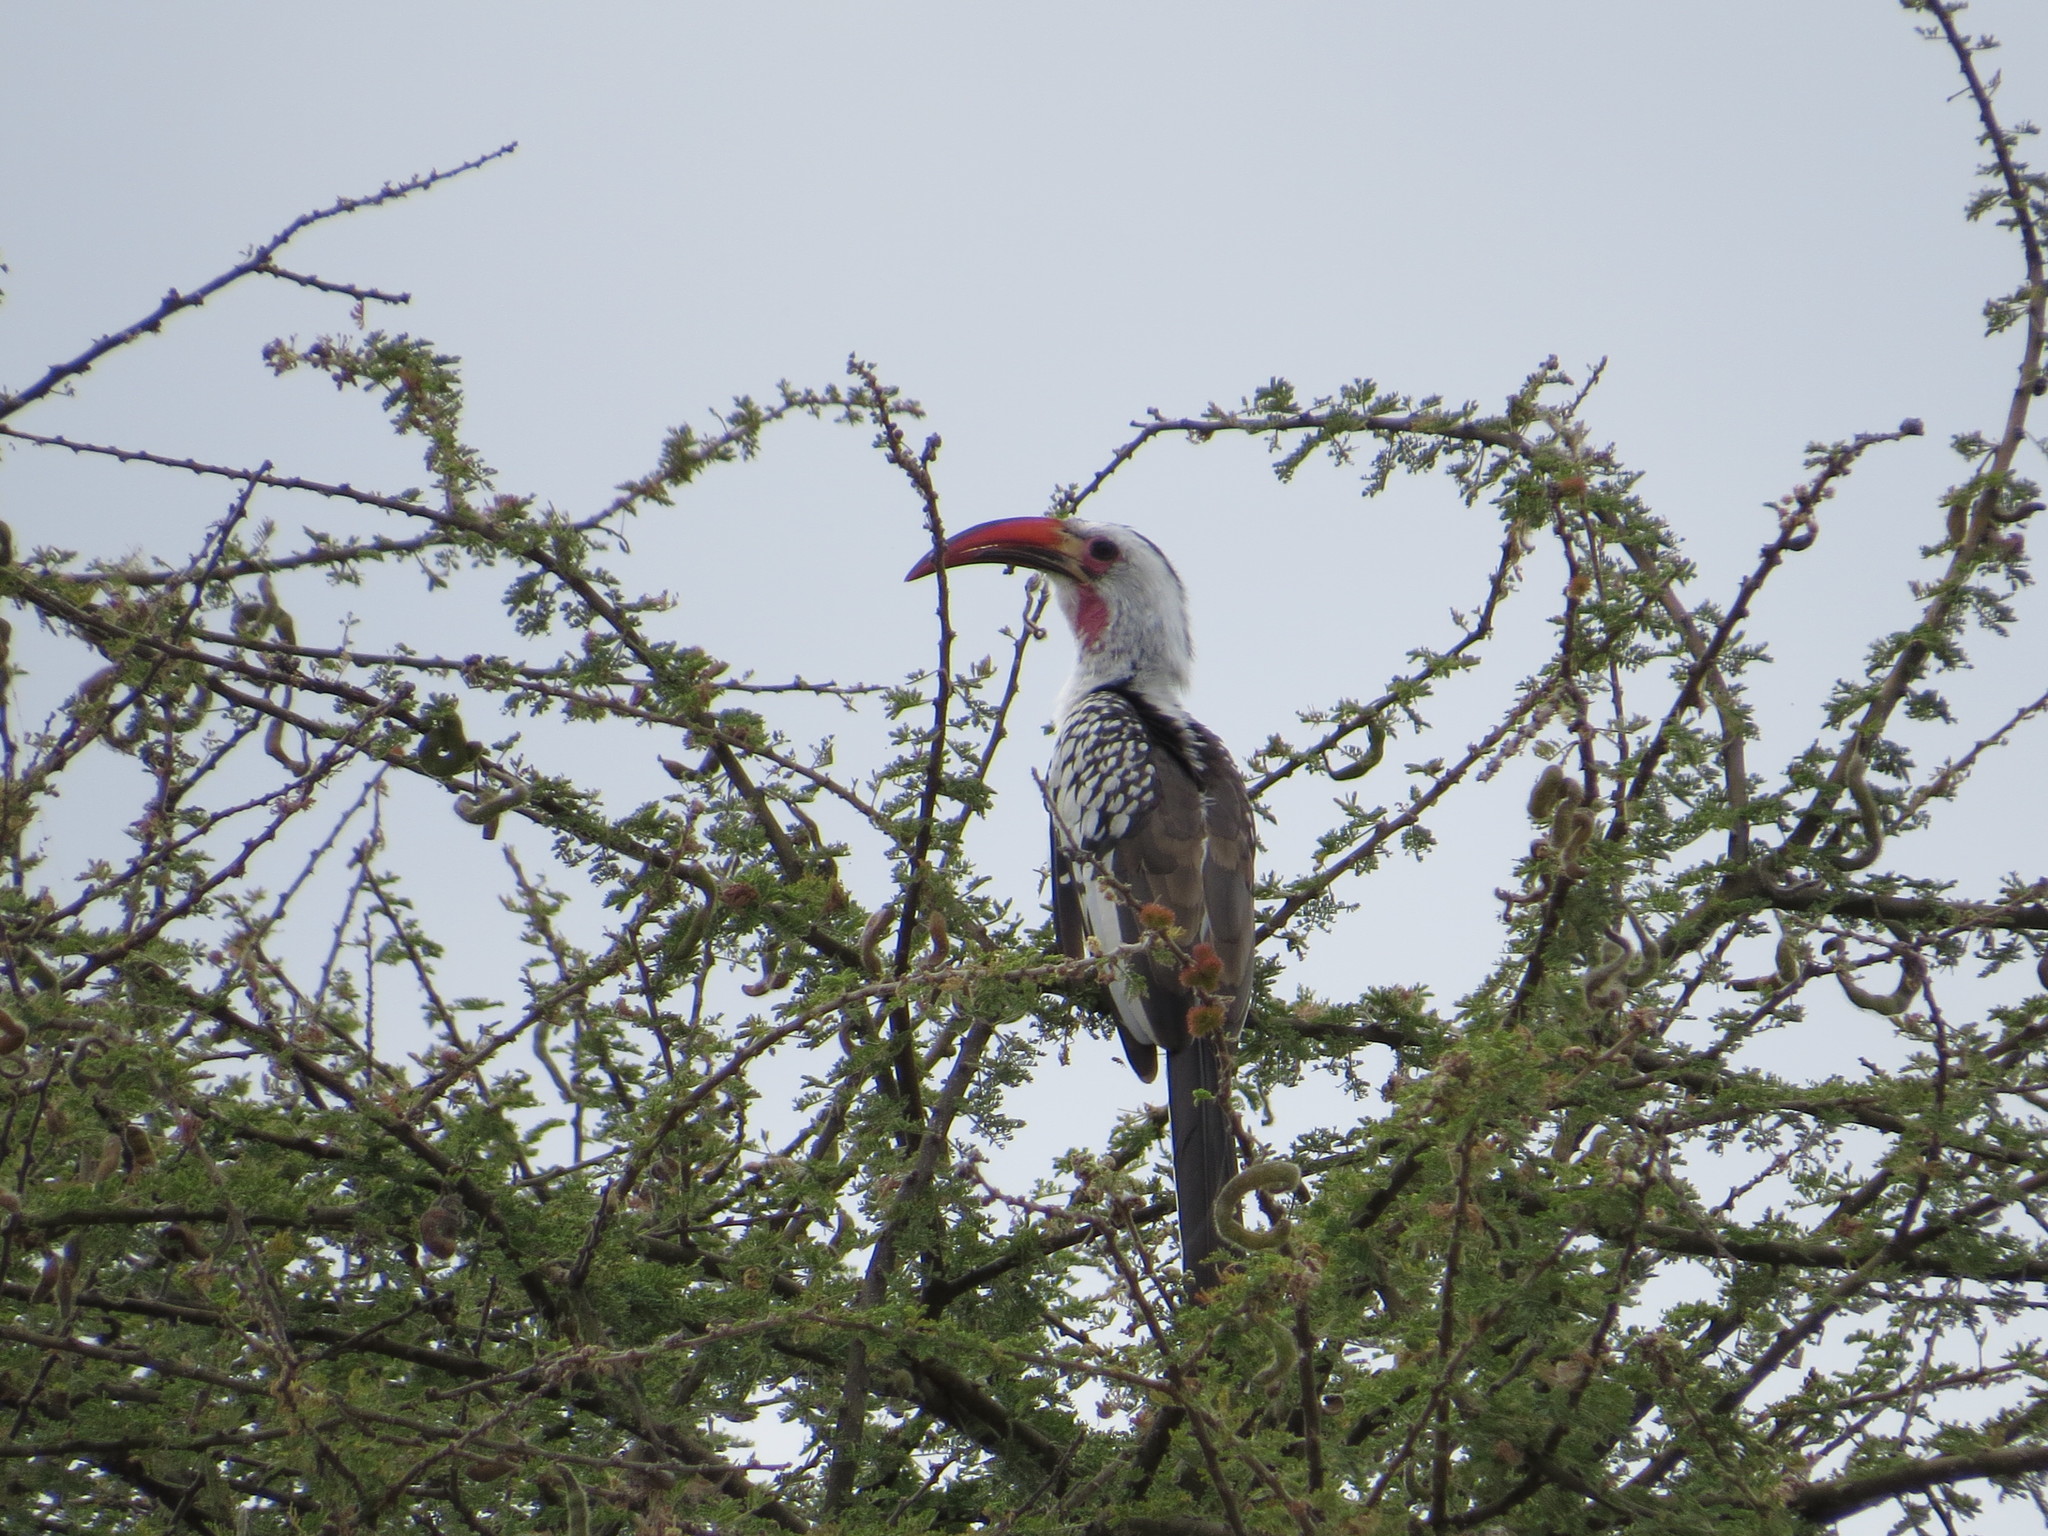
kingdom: Animalia
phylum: Chordata
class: Aves
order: Bucerotiformes
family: Bucerotidae
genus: Tockus
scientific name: Tockus erythrorhynchus
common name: Northern red-billed hornbill
